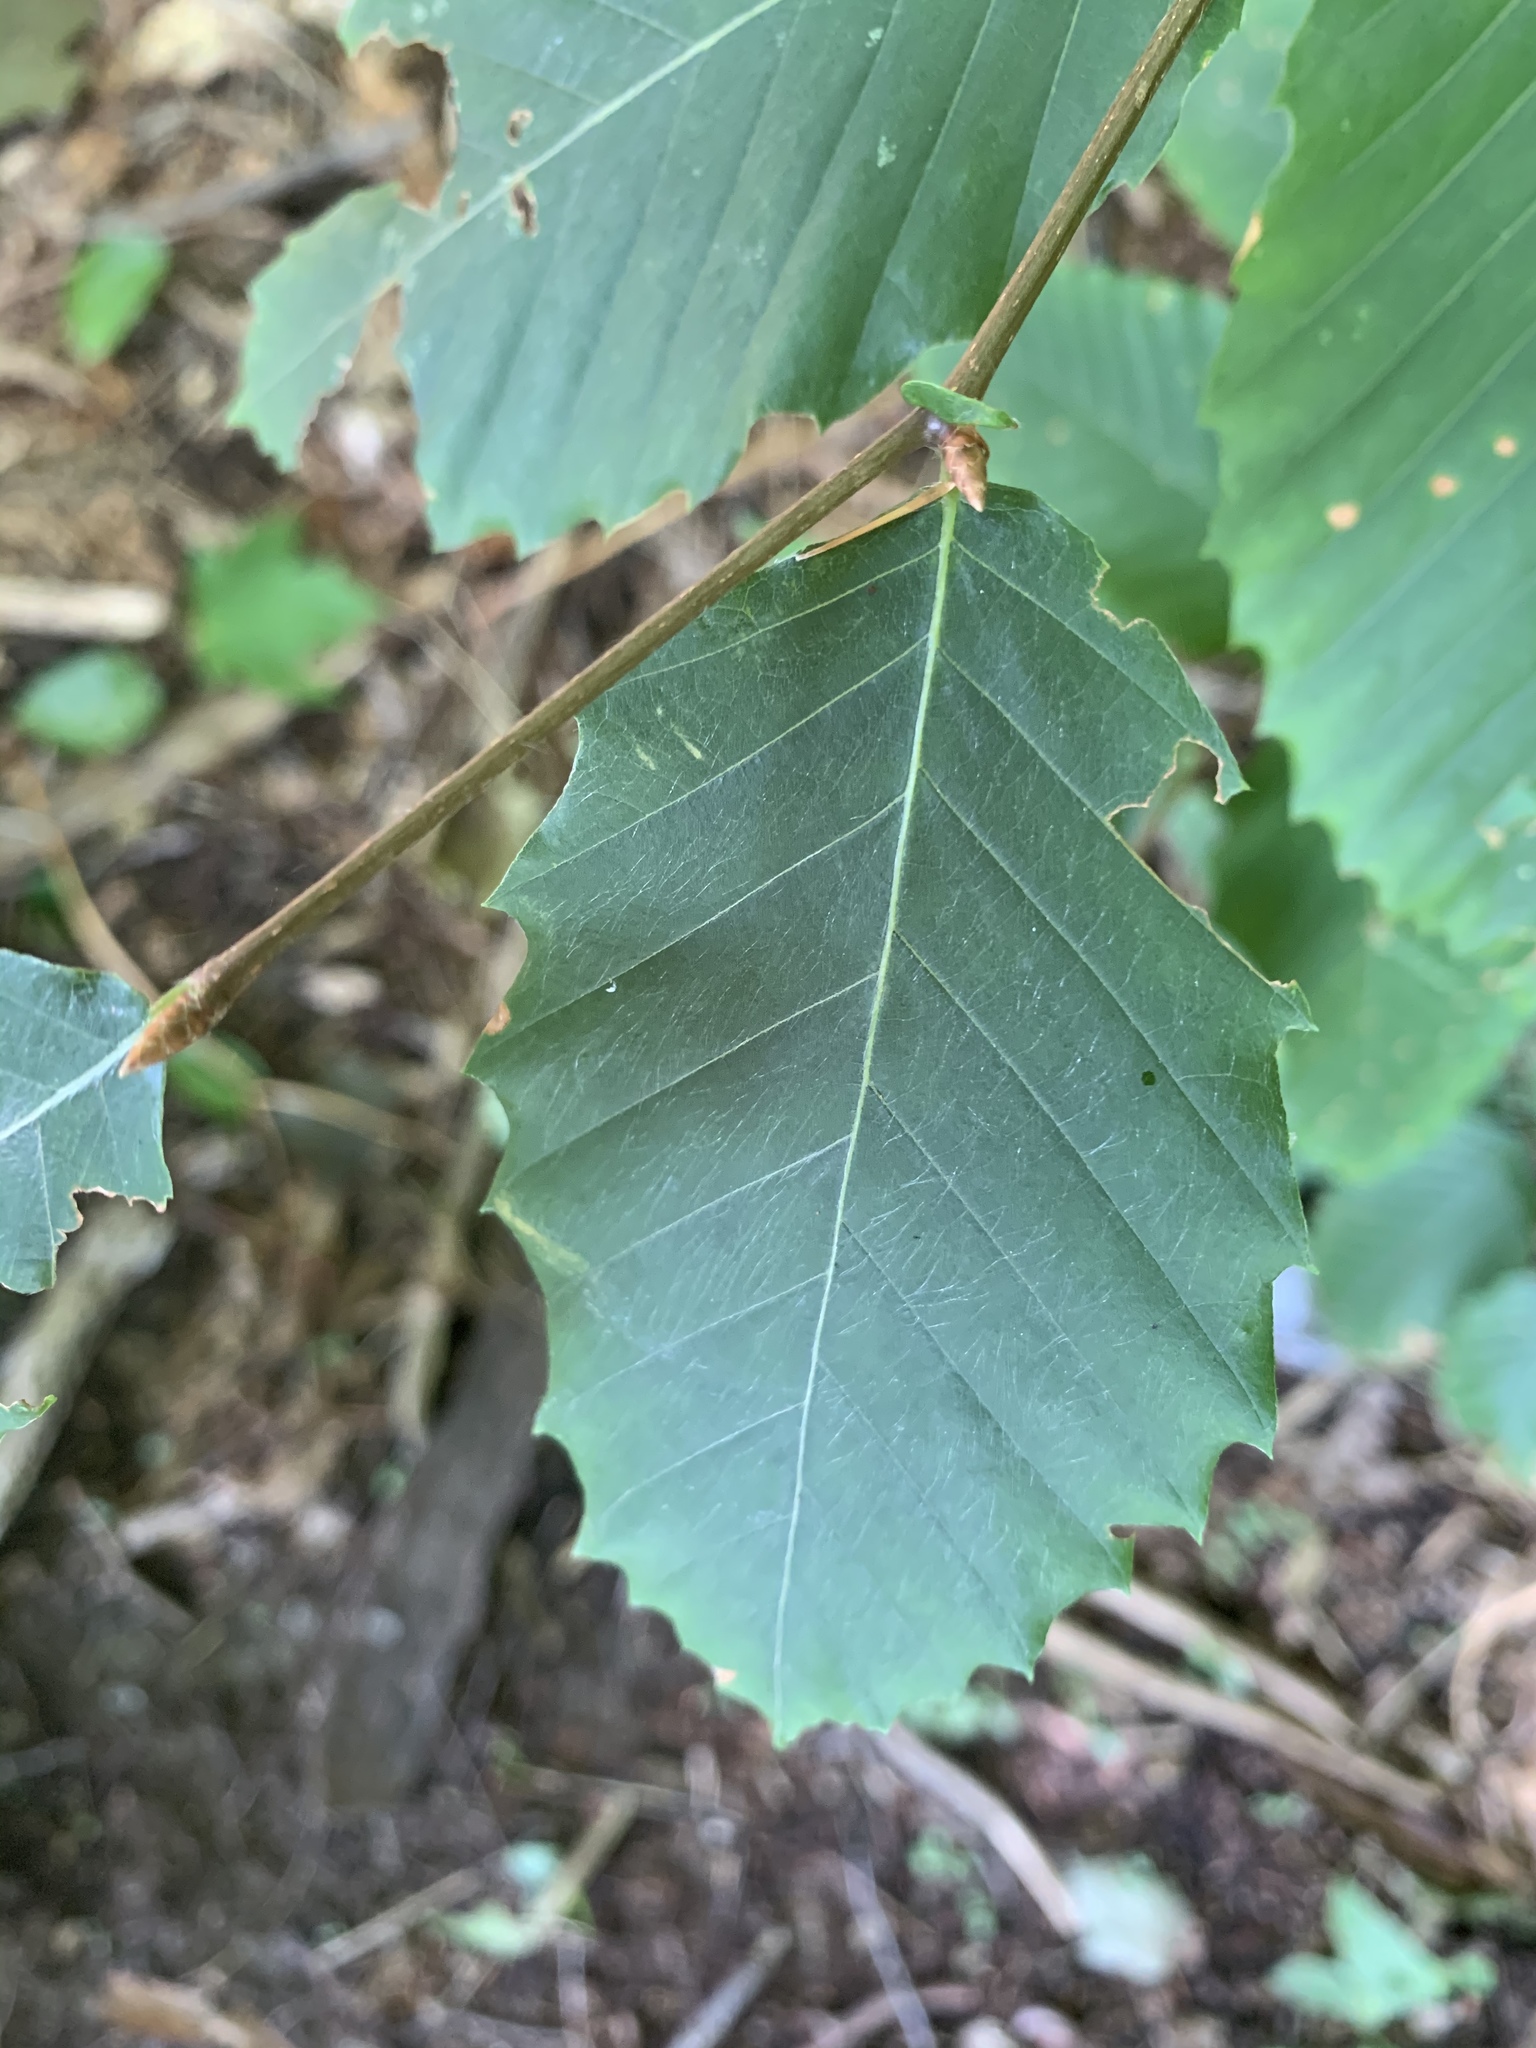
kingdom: Plantae
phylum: Tracheophyta
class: Magnoliopsida
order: Fagales
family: Fagaceae
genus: Fagus
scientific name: Fagus grandifolia
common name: American beech
